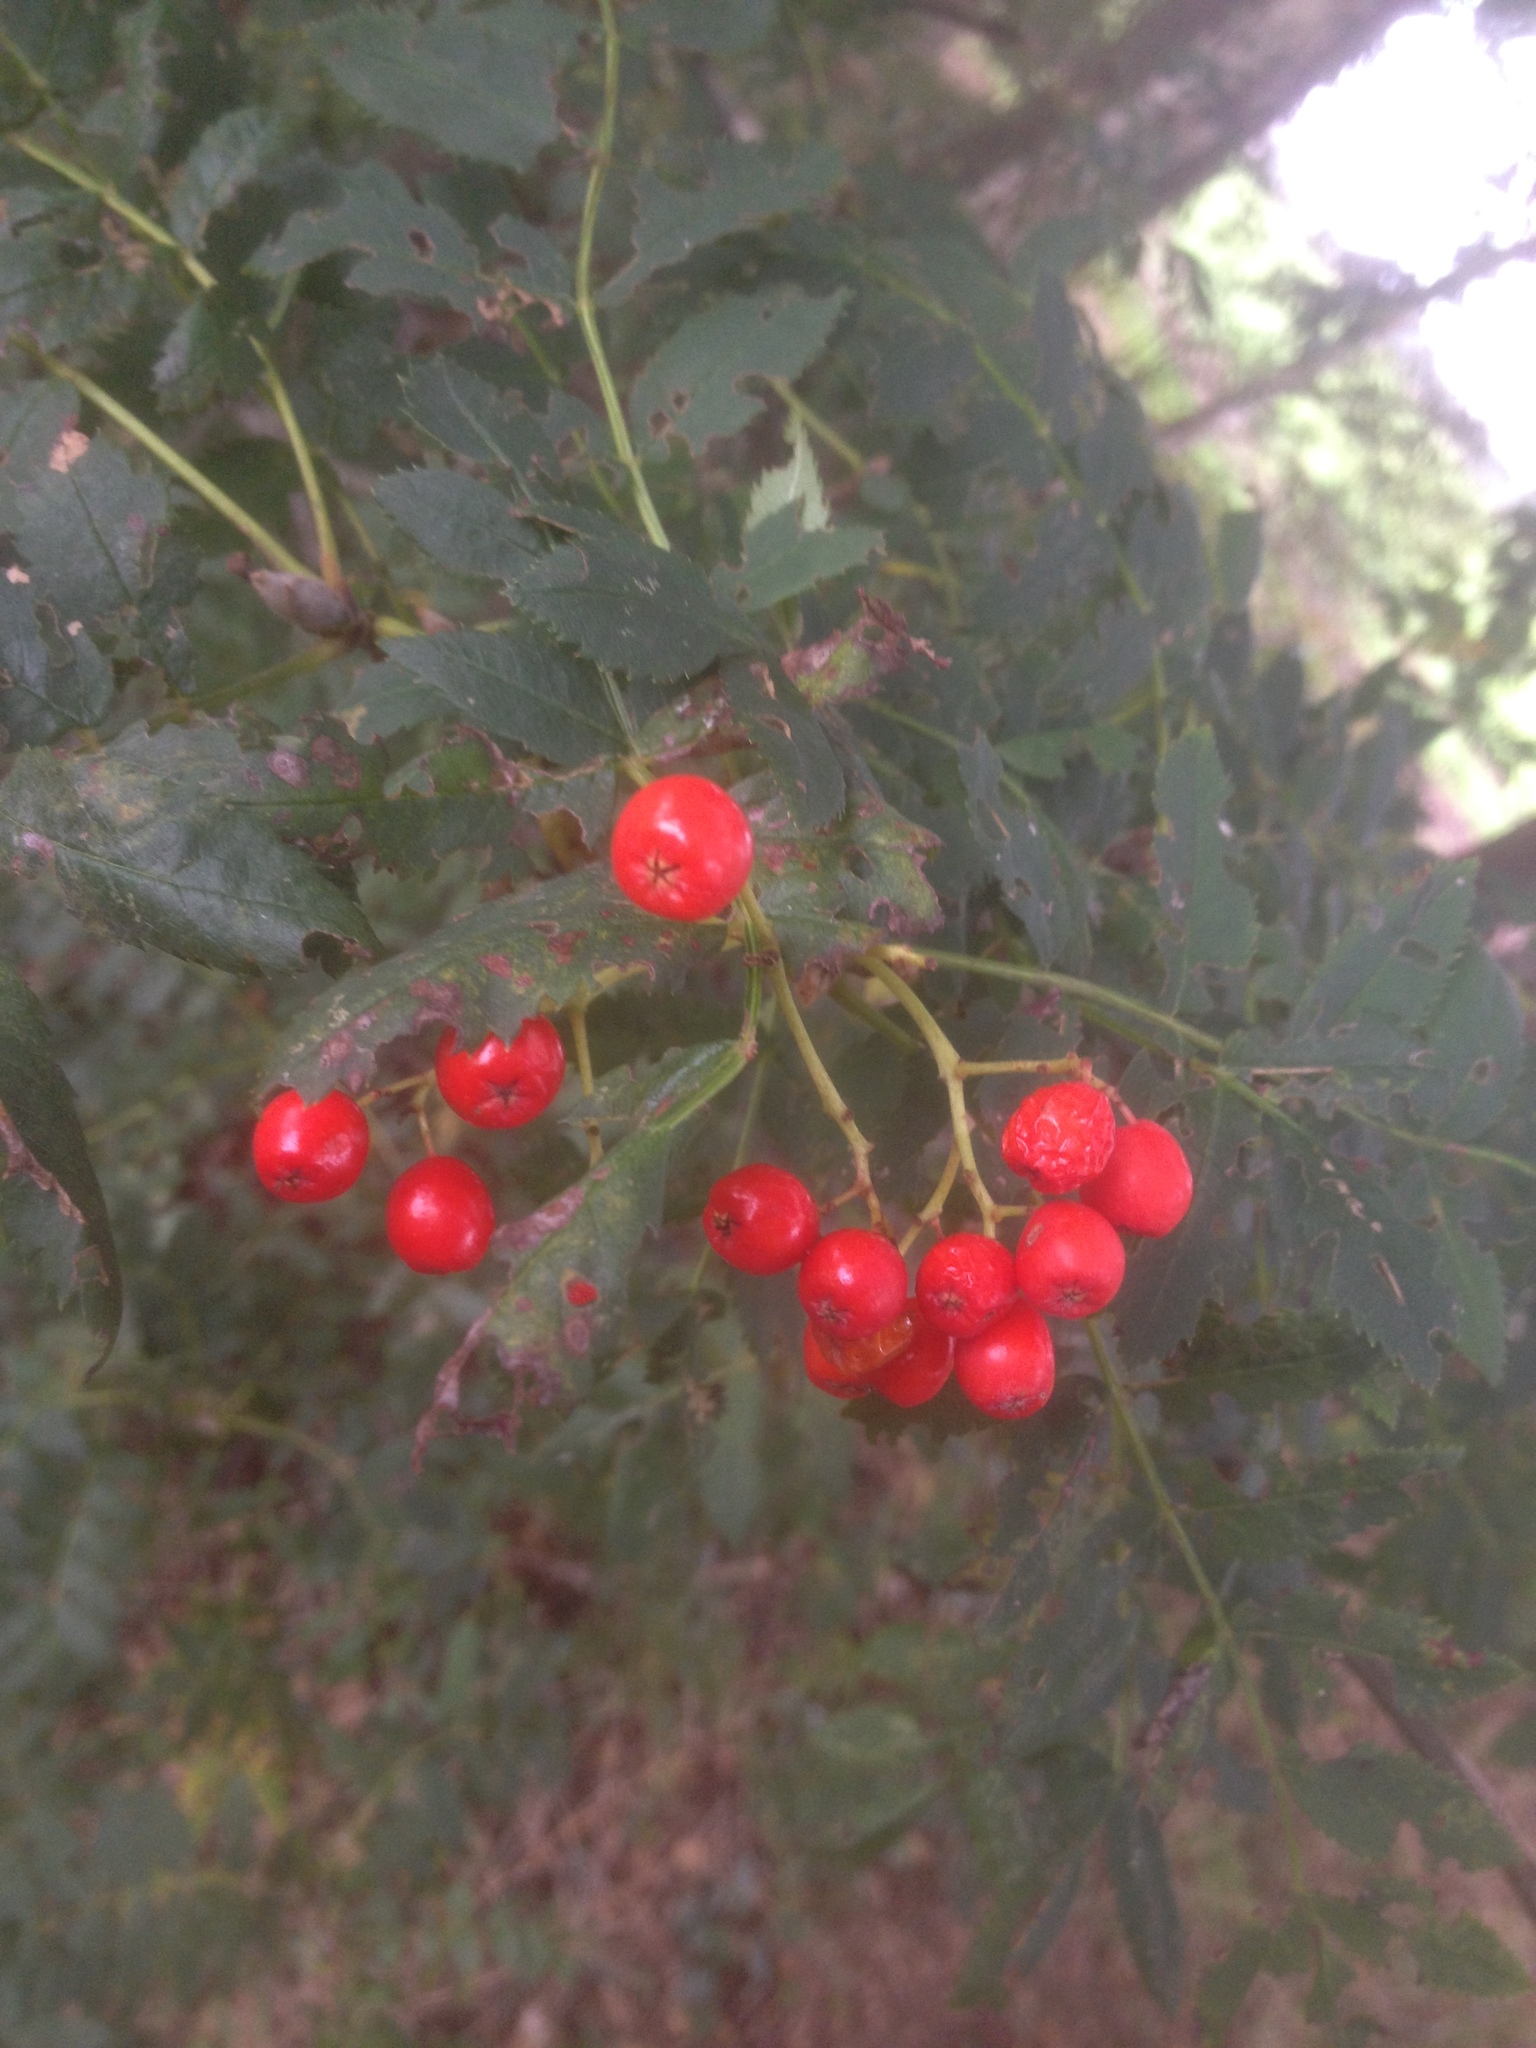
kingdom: Plantae
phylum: Tracheophyta
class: Magnoliopsida
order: Rosales
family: Rosaceae
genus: Sorbus
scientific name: Sorbus aucuparia
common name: Rowan
